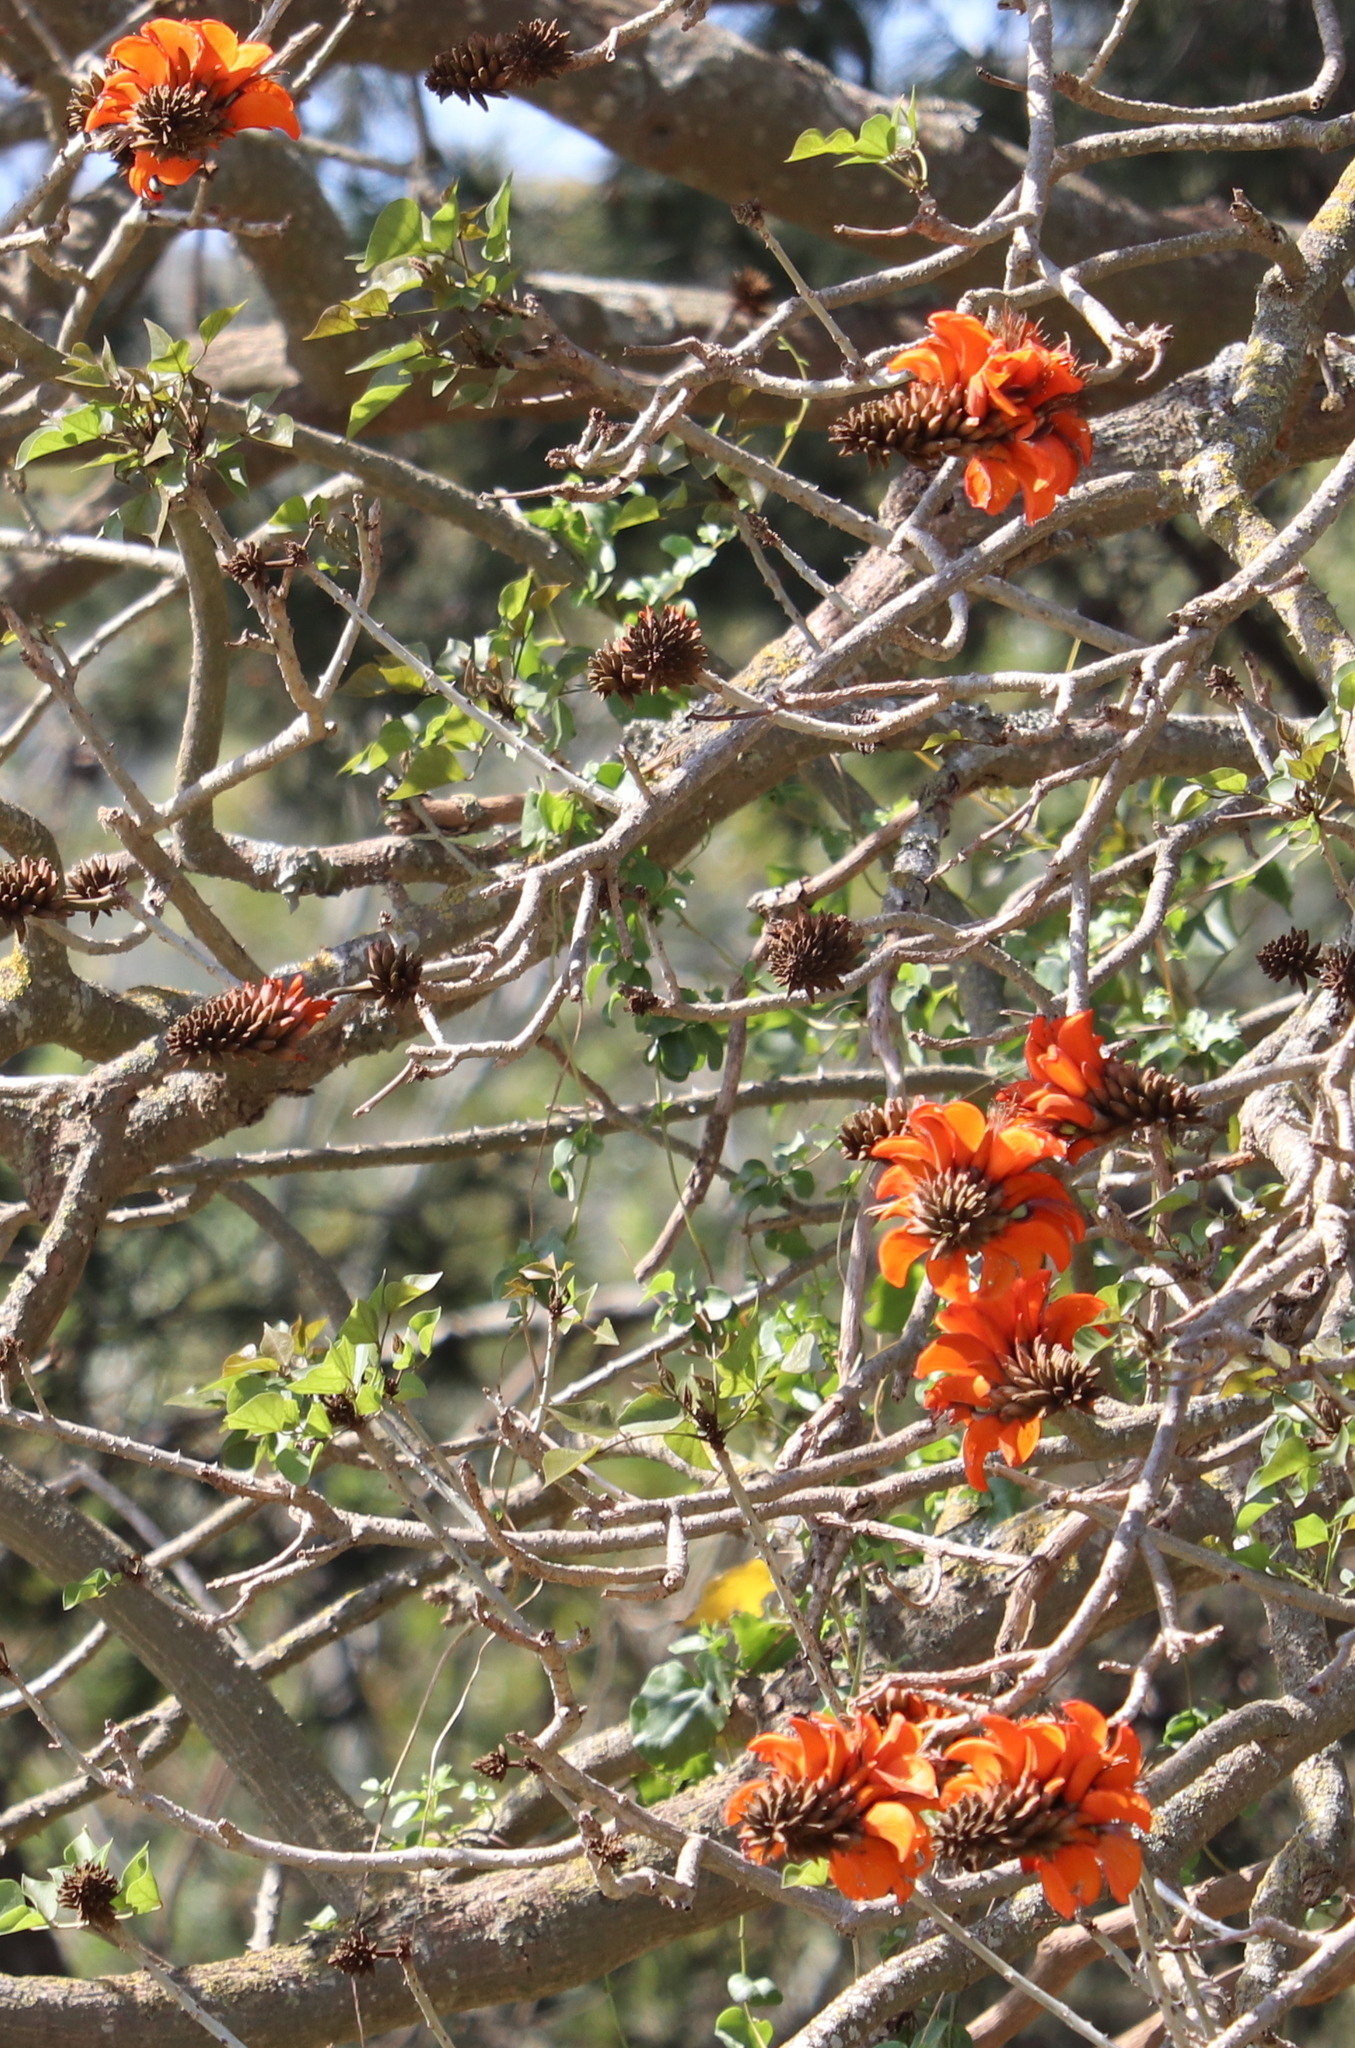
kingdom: Plantae
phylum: Tracheophyta
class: Magnoliopsida
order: Fabales
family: Fabaceae
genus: Erythrina
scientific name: Erythrina caffra
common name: Coast coral tree
